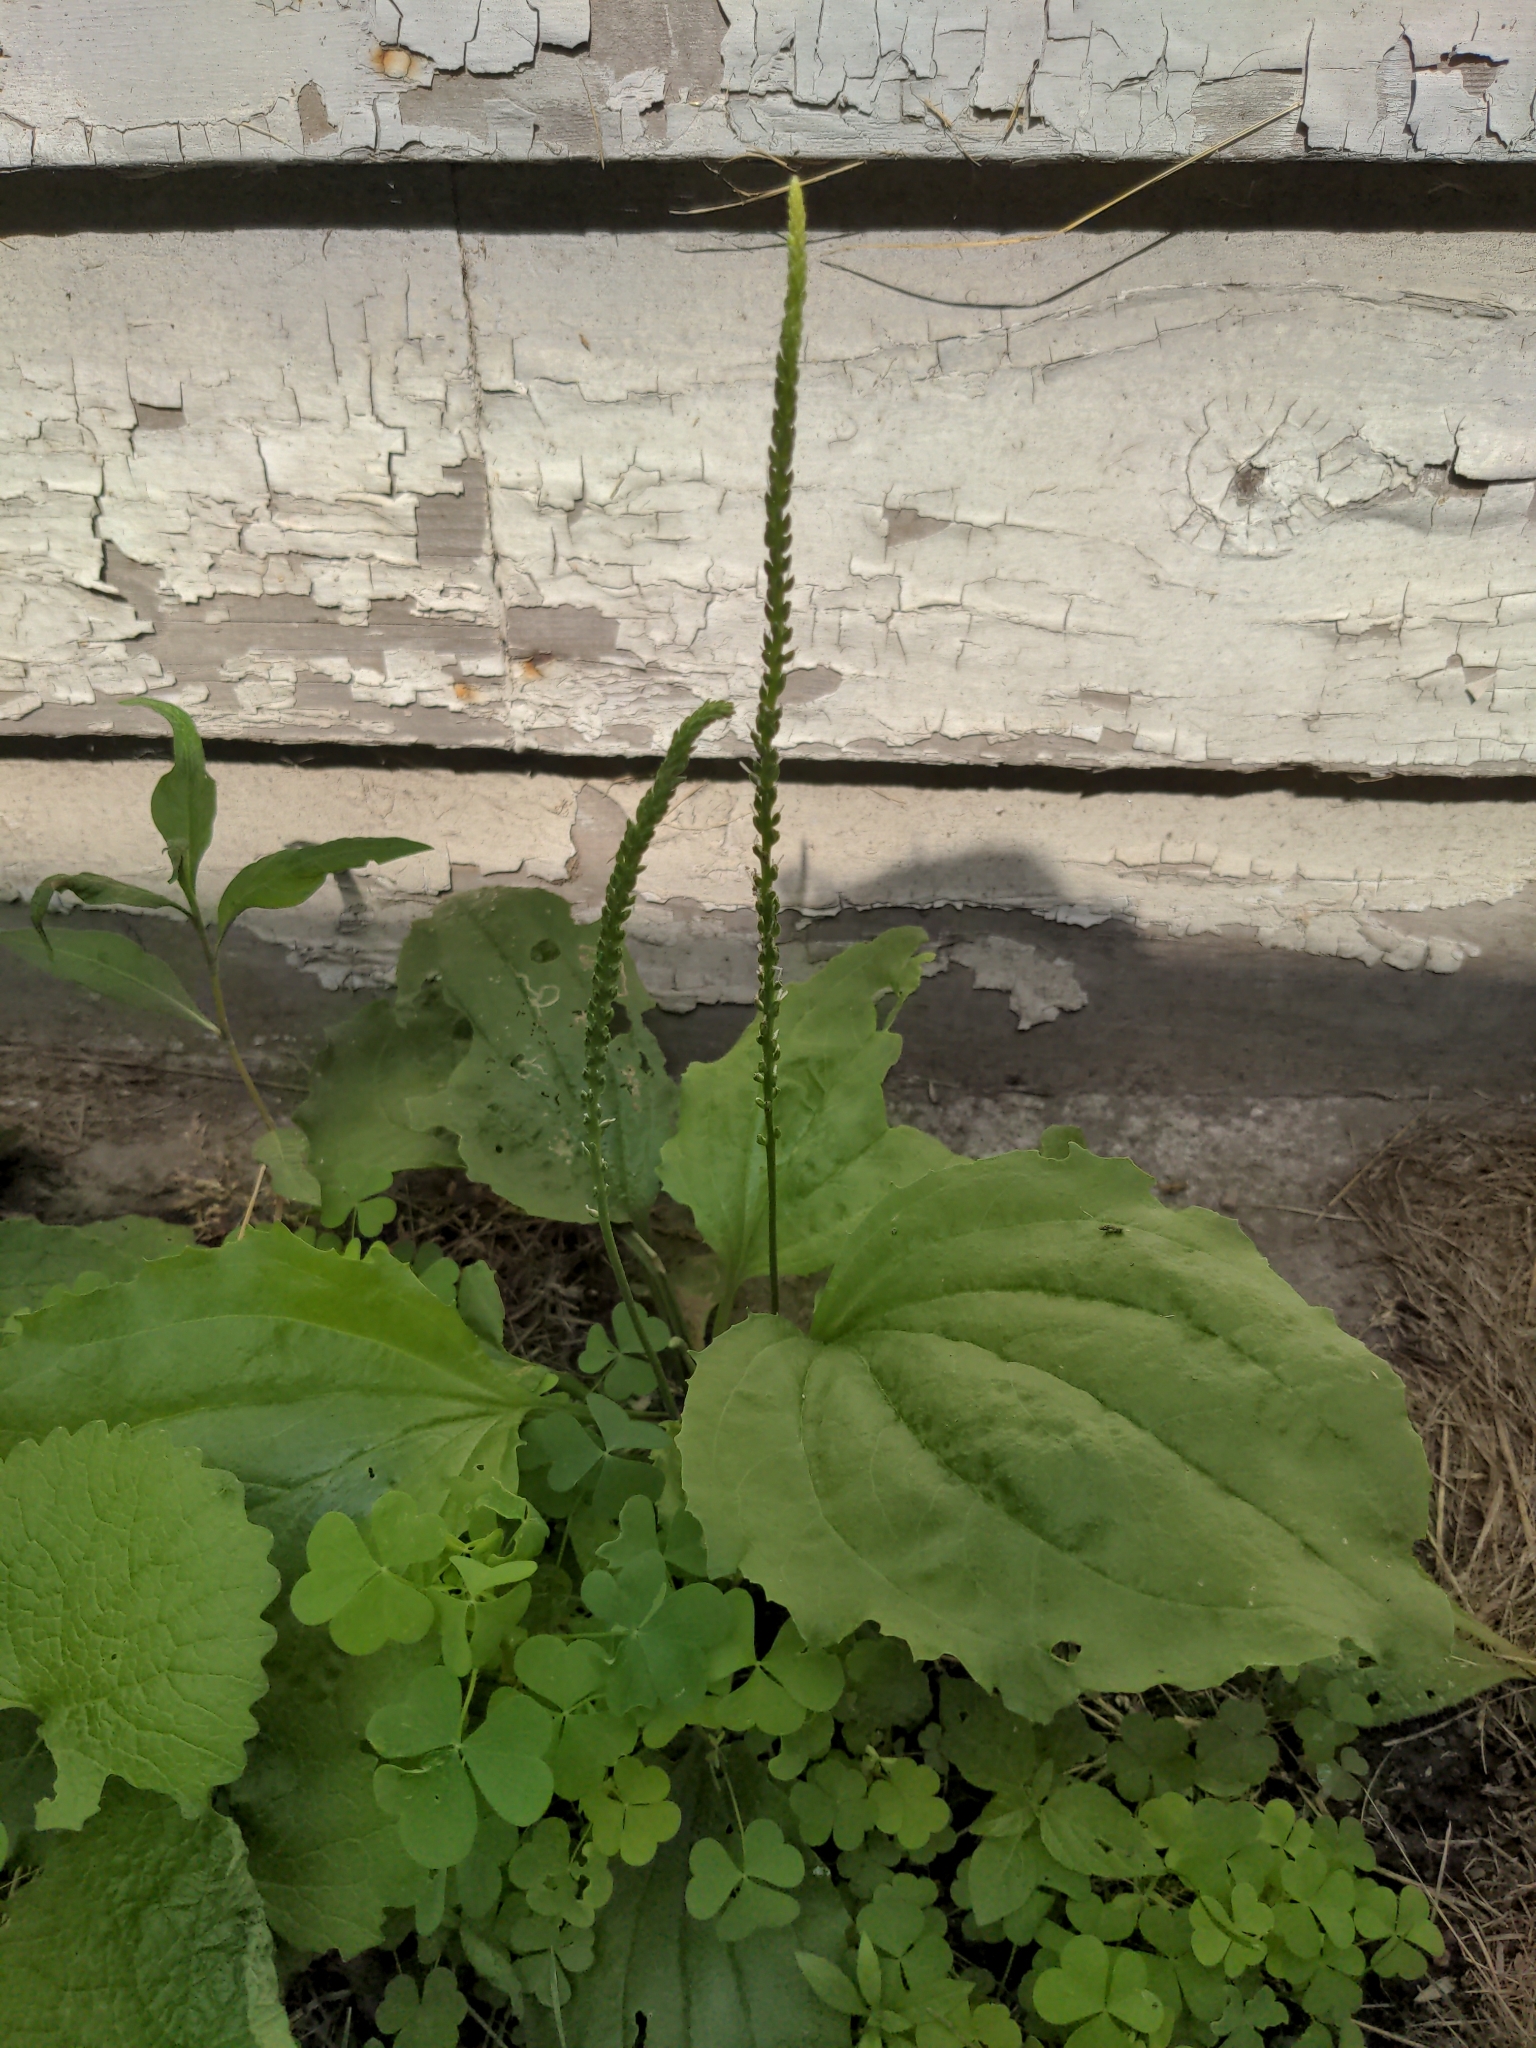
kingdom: Plantae
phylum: Tracheophyta
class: Magnoliopsida
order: Lamiales
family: Plantaginaceae
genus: Plantago
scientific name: Plantago major
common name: Common plantain
